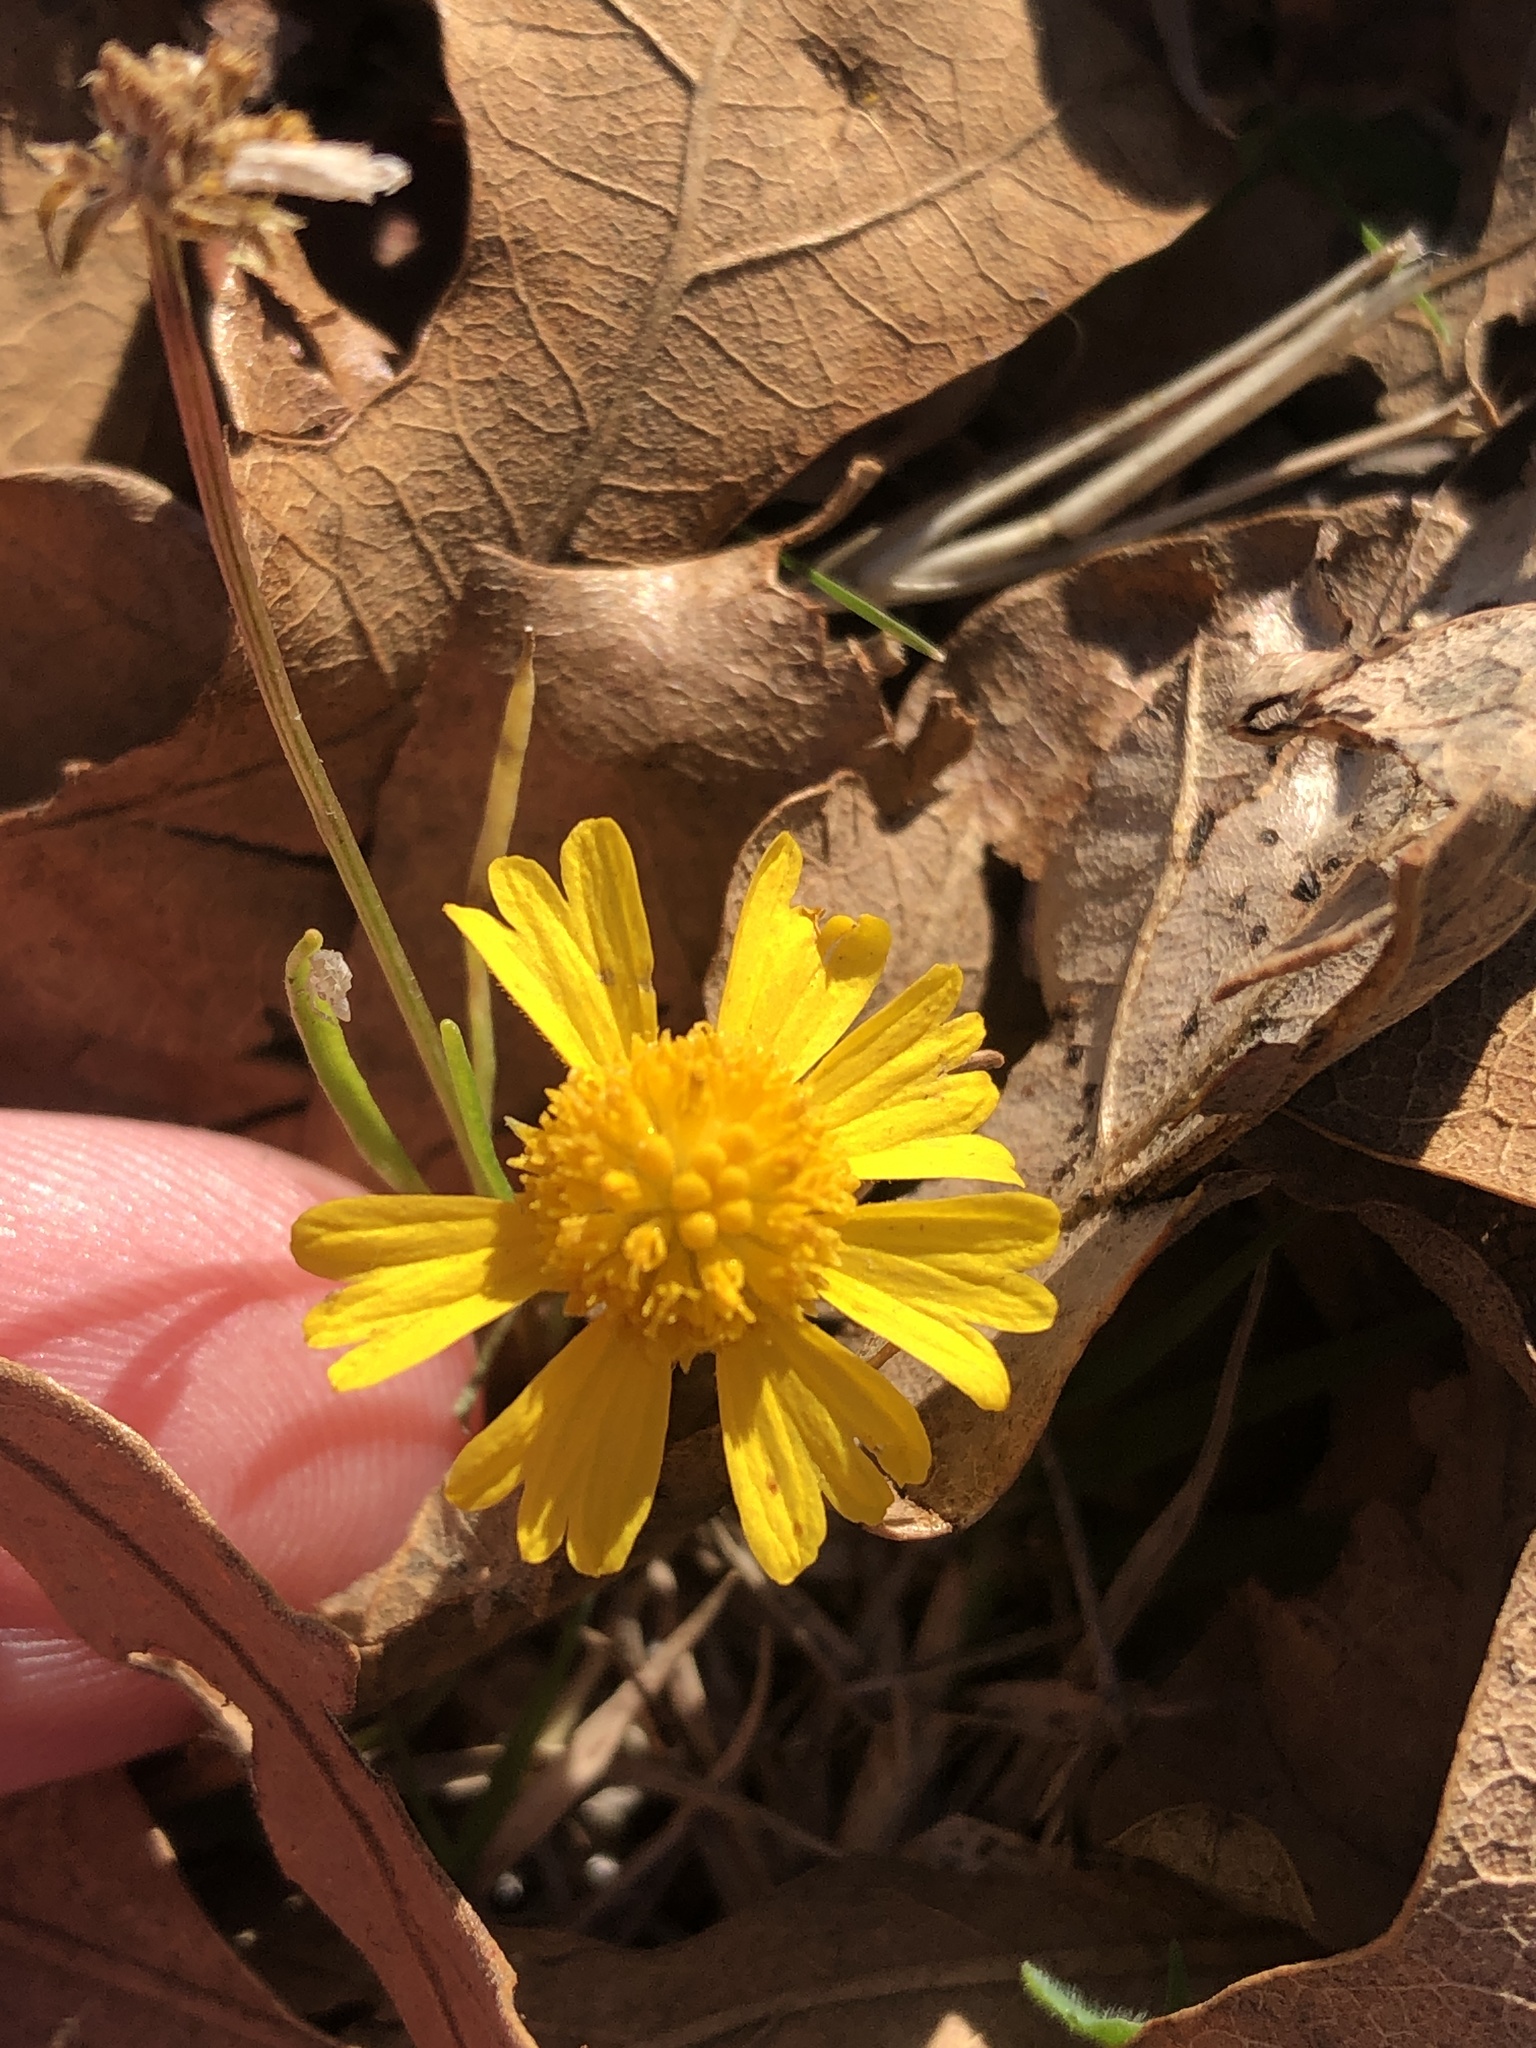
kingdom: Plantae
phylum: Tracheophyta
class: Magnoliopsida
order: Asterales
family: Asteraceae
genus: Helenium
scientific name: Helenium amarum
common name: Bitter sneezeweed
